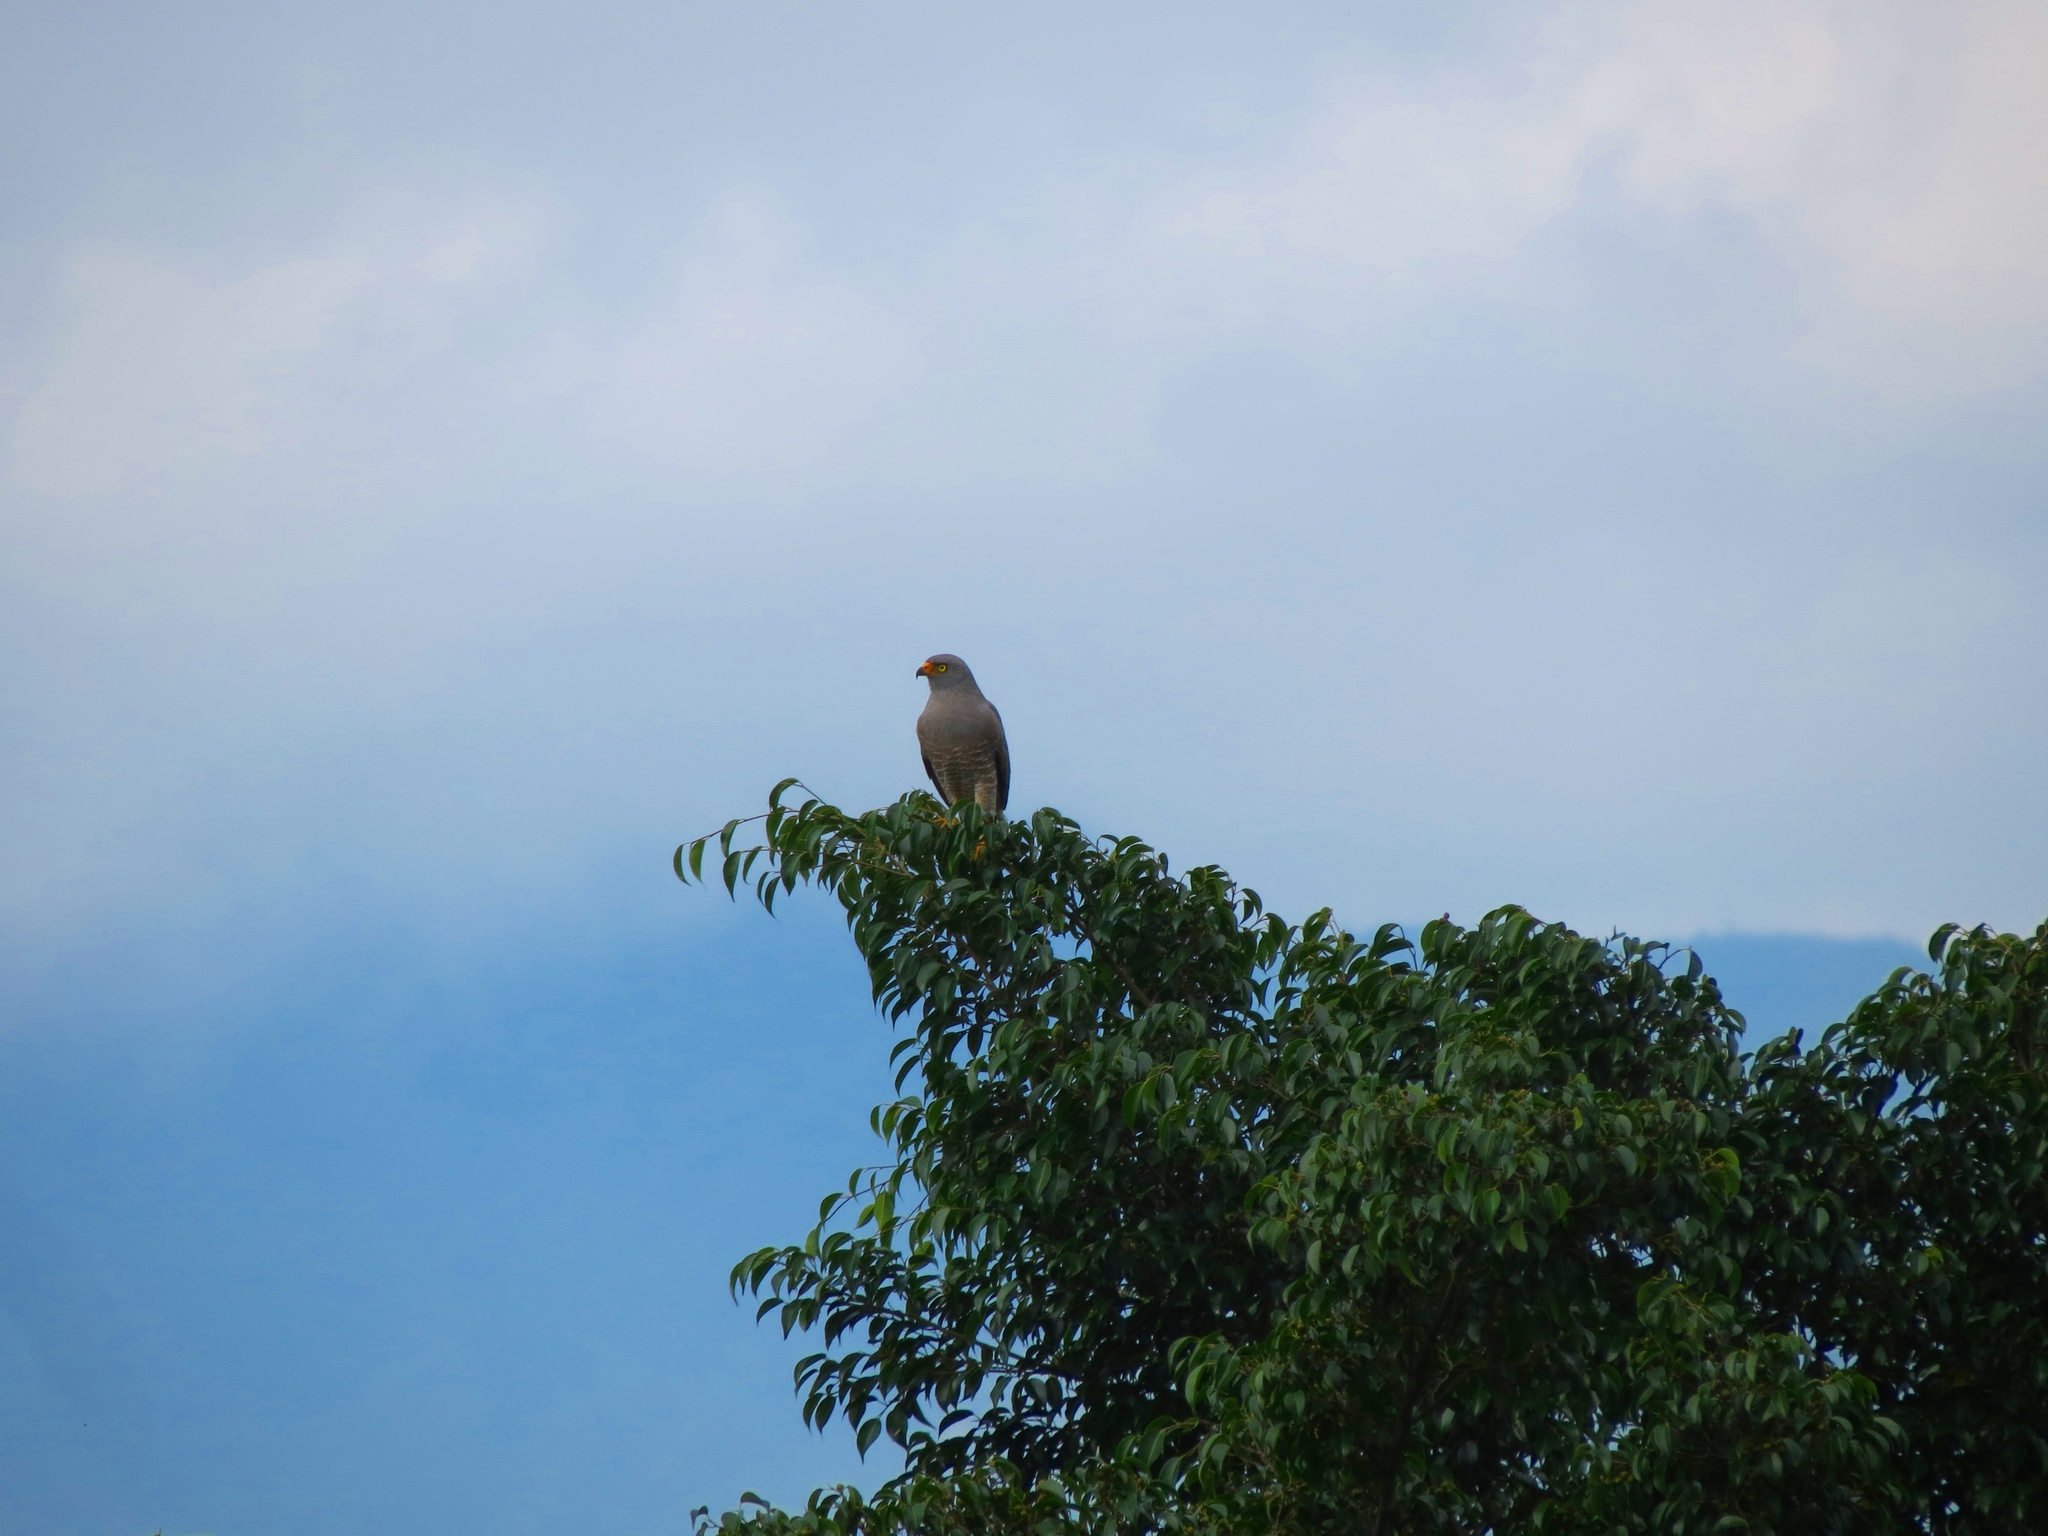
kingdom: Animalia
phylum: Chordata
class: Aves
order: Accipitriformes
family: Accipitridae
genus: Rupornis
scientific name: Rupornis magnirostris
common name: Roadside hawk
